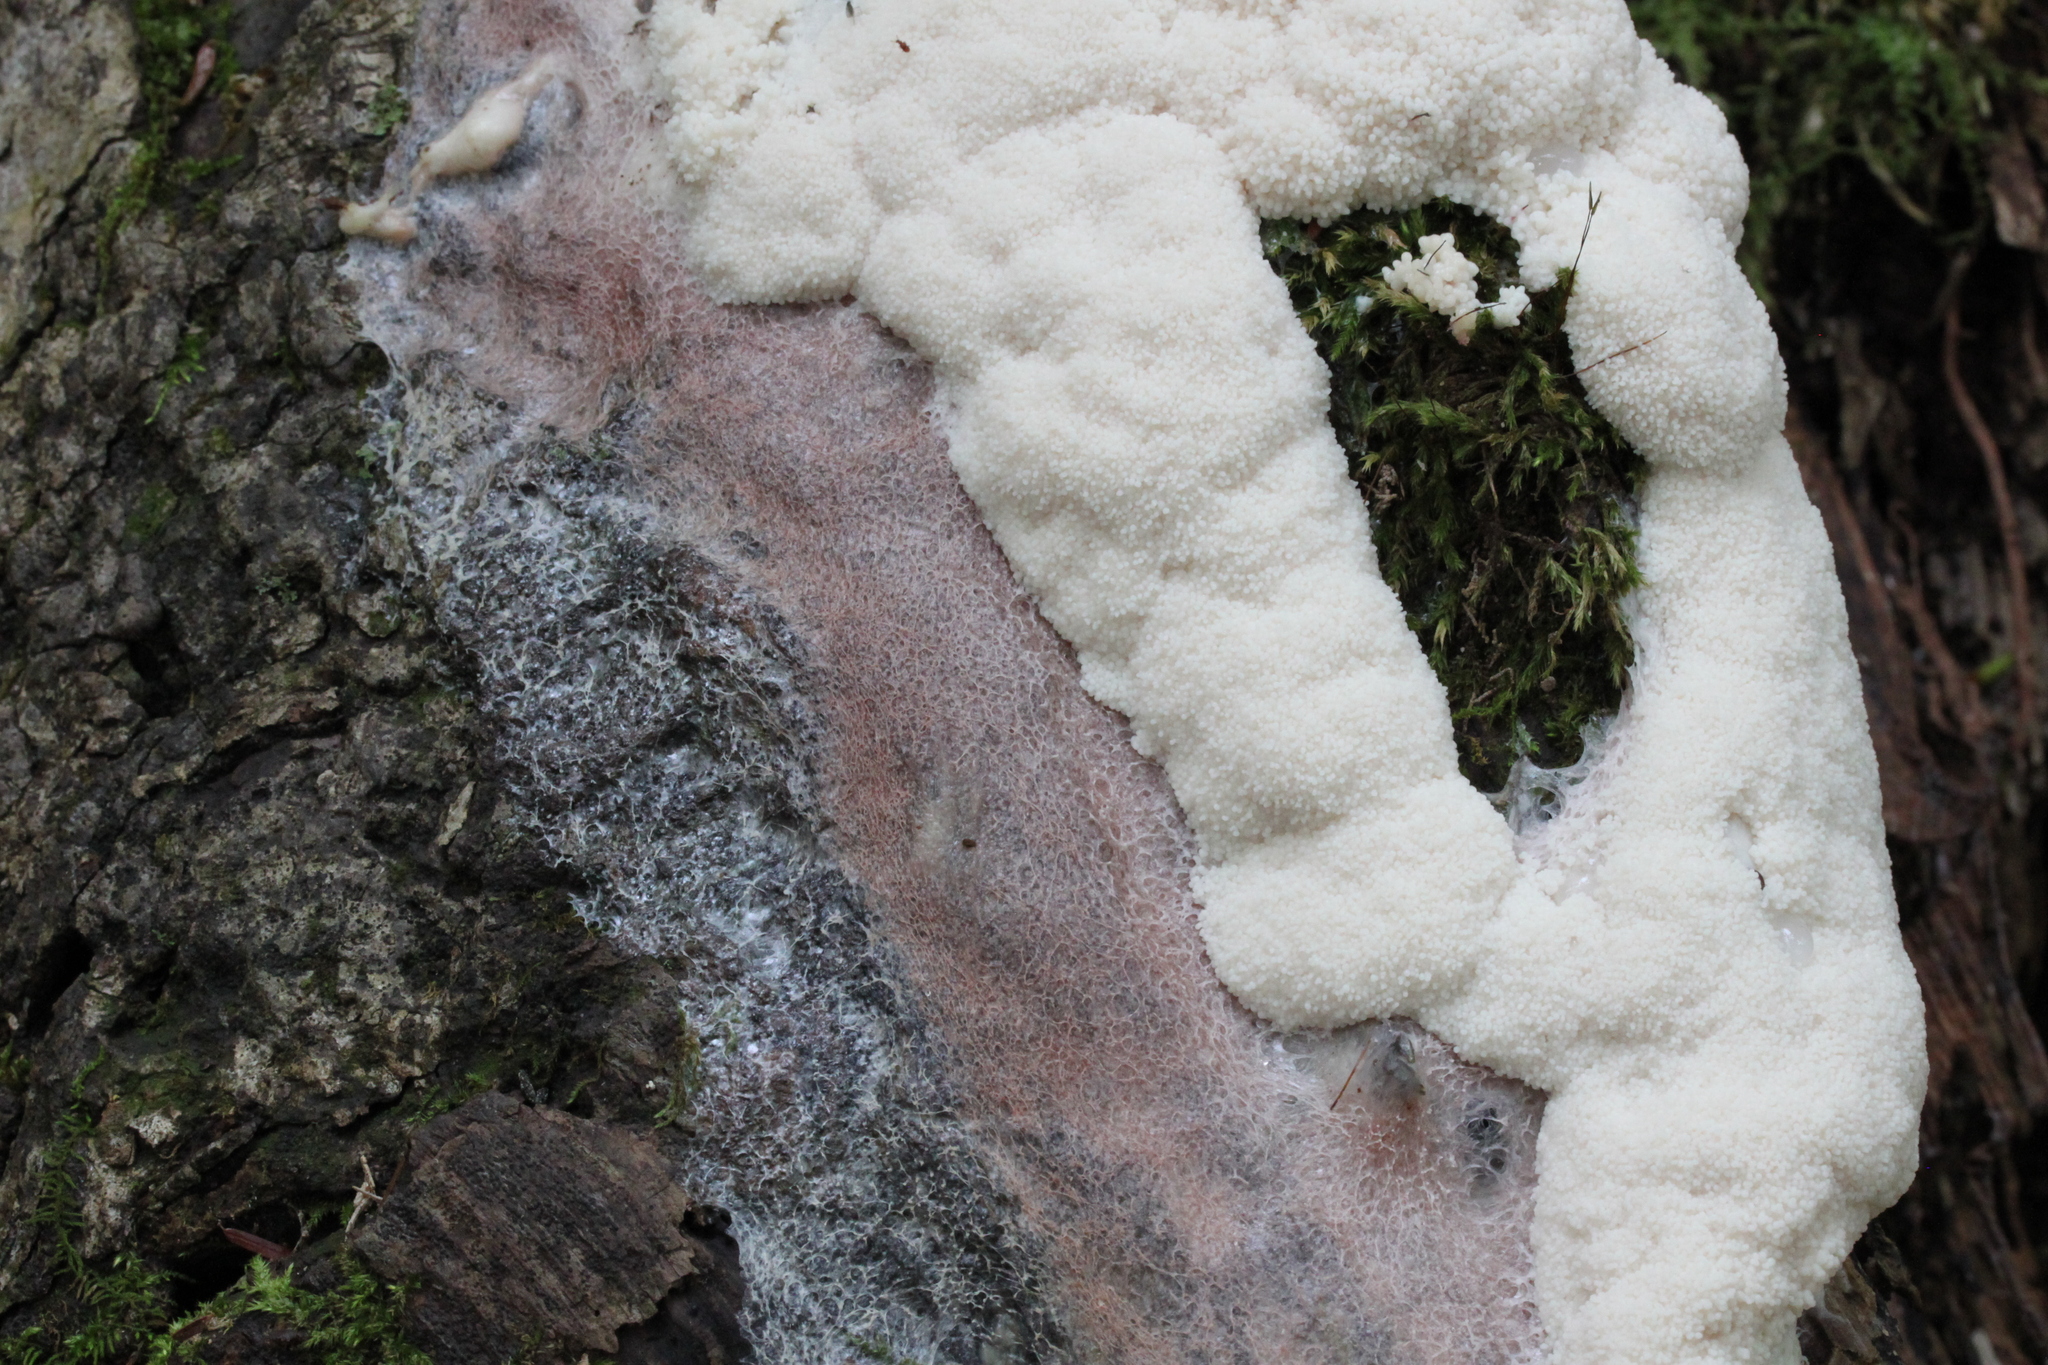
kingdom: Protozoa
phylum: Mycetozoa
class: Myxomycetes
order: Stemonitidales
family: Stemonitidaceae
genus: Brefeldia
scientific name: Brefeldia maxima
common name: Tapioca slime mold
